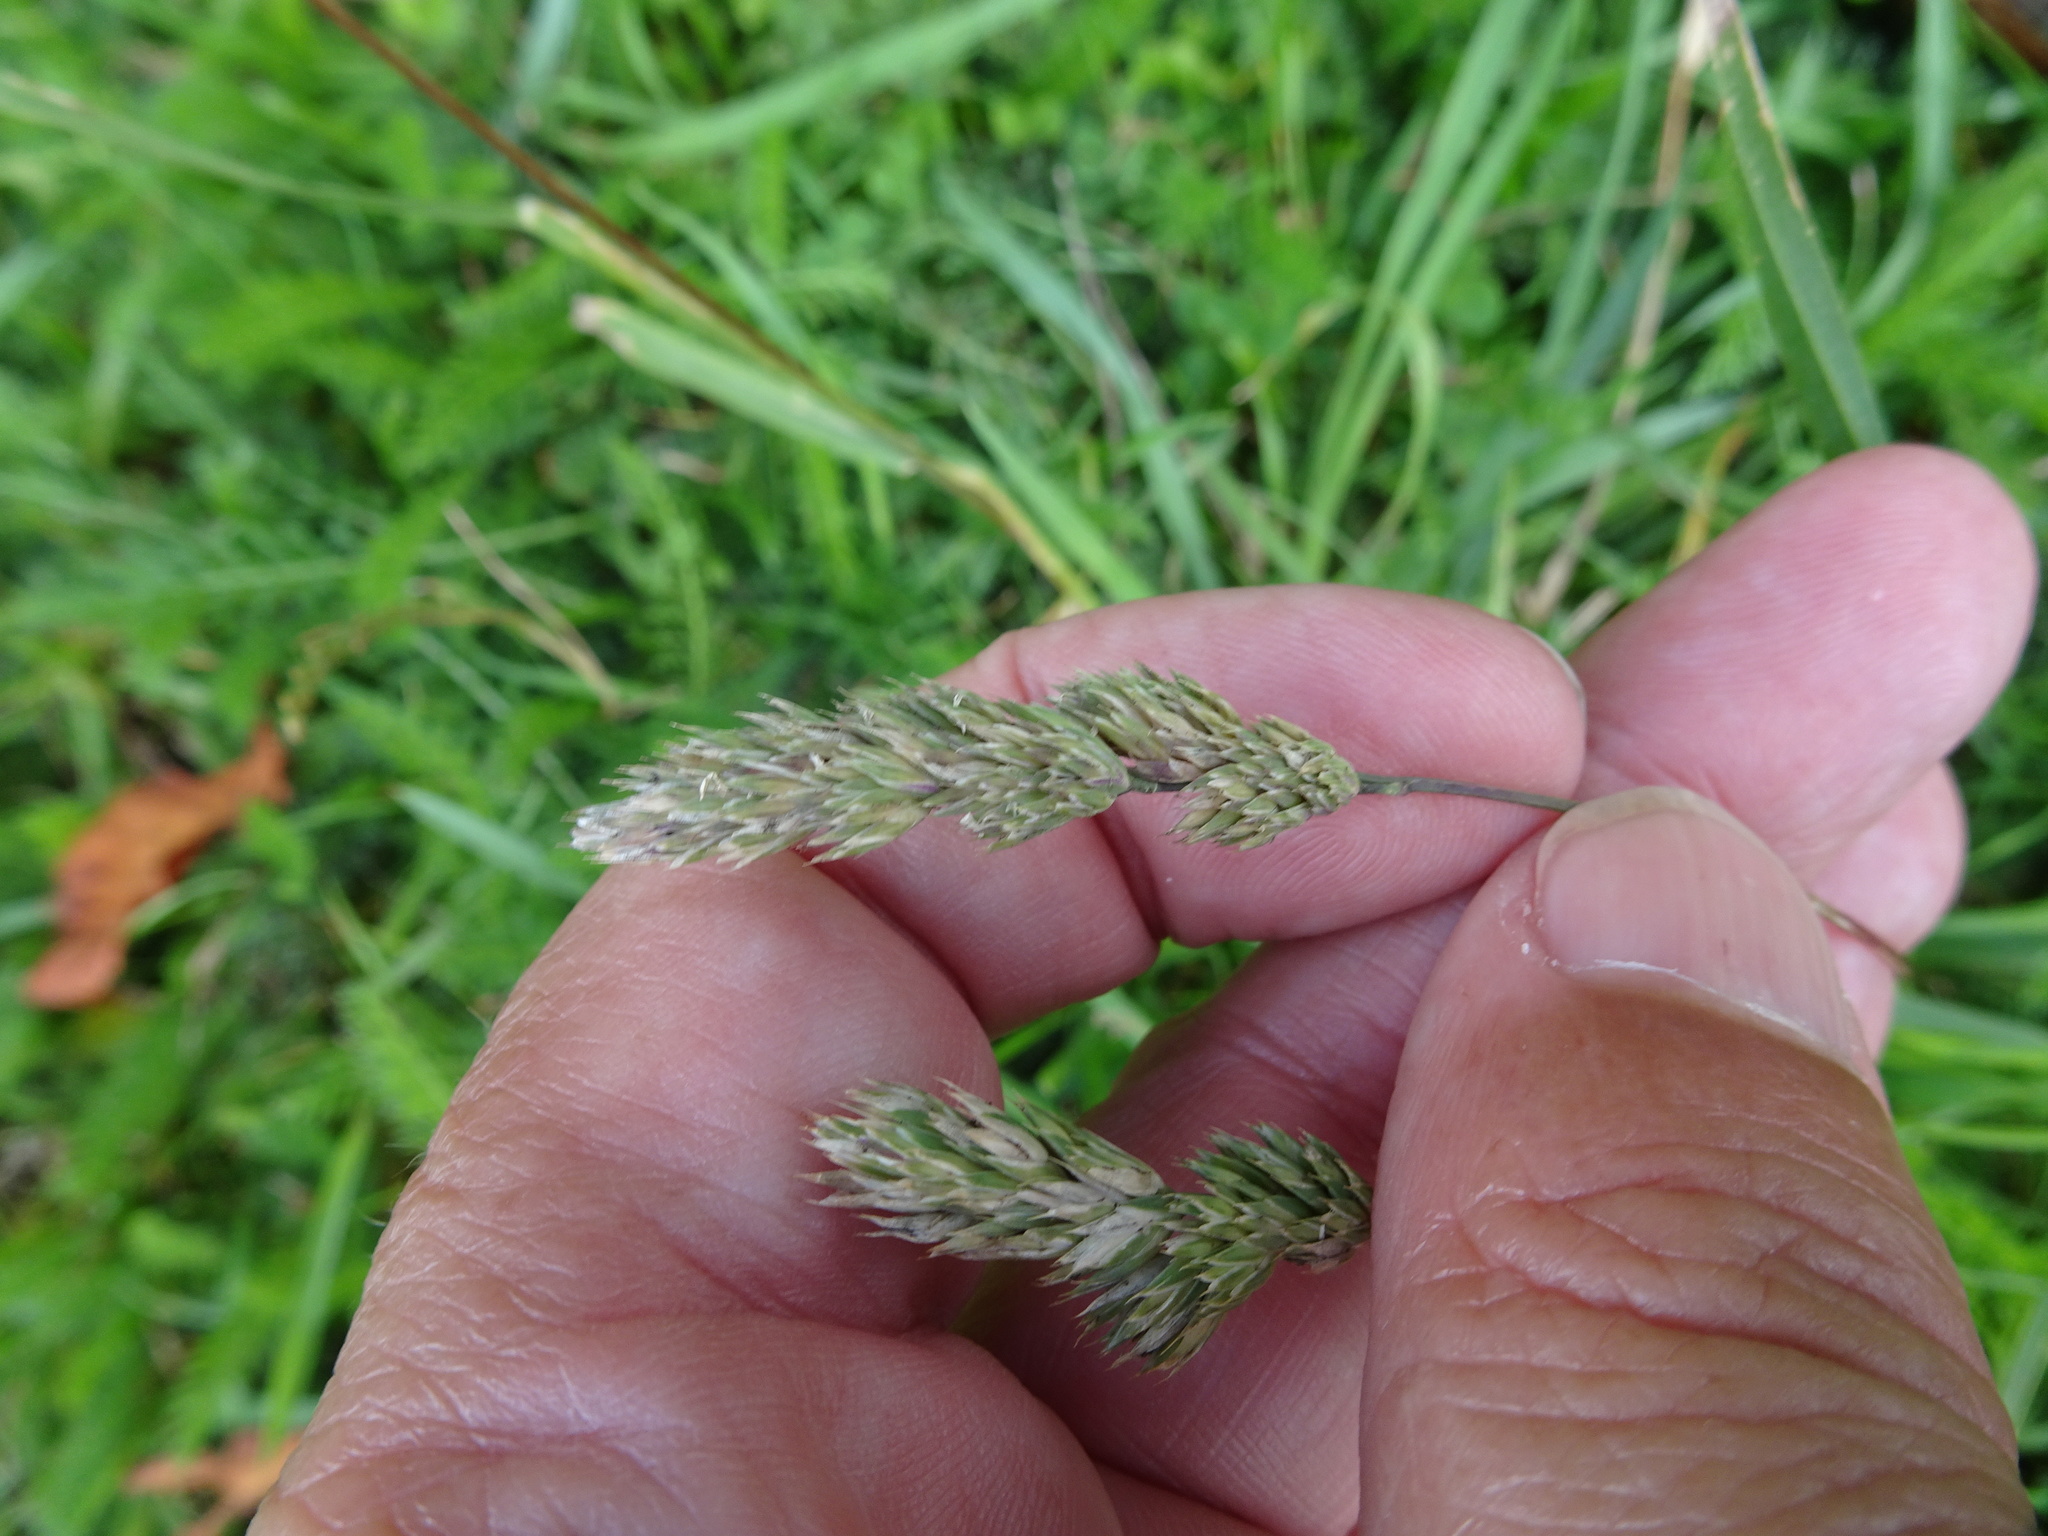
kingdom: Plantae
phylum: Tracheophyta
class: Liliopsida
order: Poales
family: Poaceae
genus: Dactylis
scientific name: Dactylis glomerata
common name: Orchardgrass
